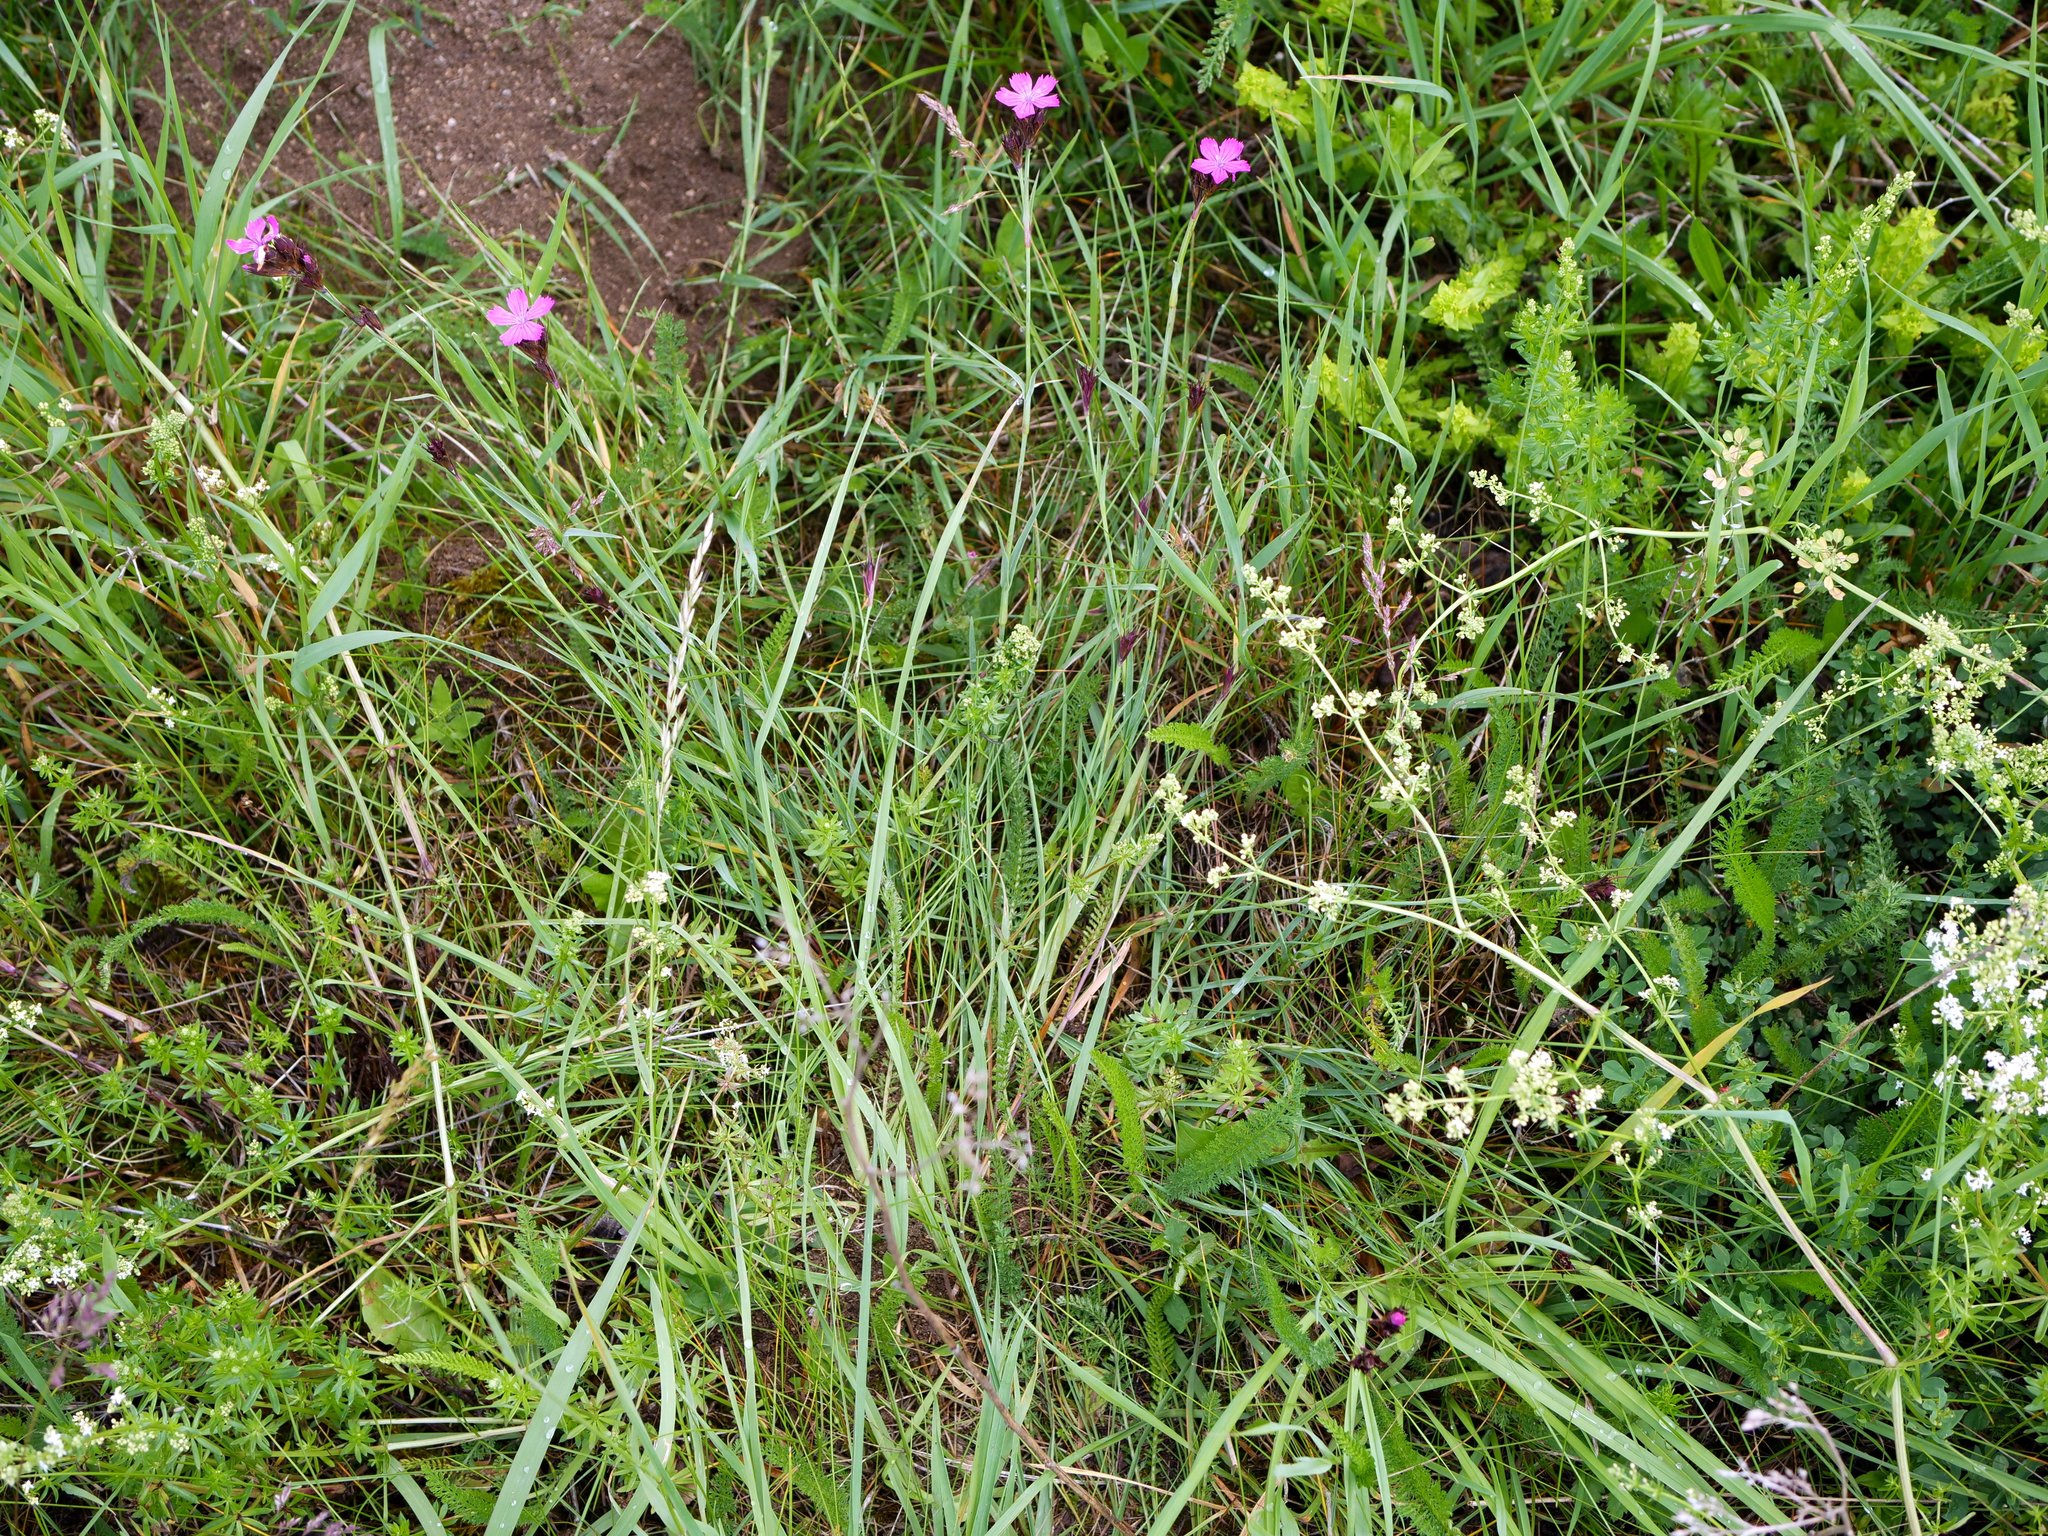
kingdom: Plantae
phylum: Tracheophyta
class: Magnoliopsida
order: Caryophyllales
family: Caryophyllaceae
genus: Dianthus
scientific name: Dianthus carthusianorum
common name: Carthusian pink
